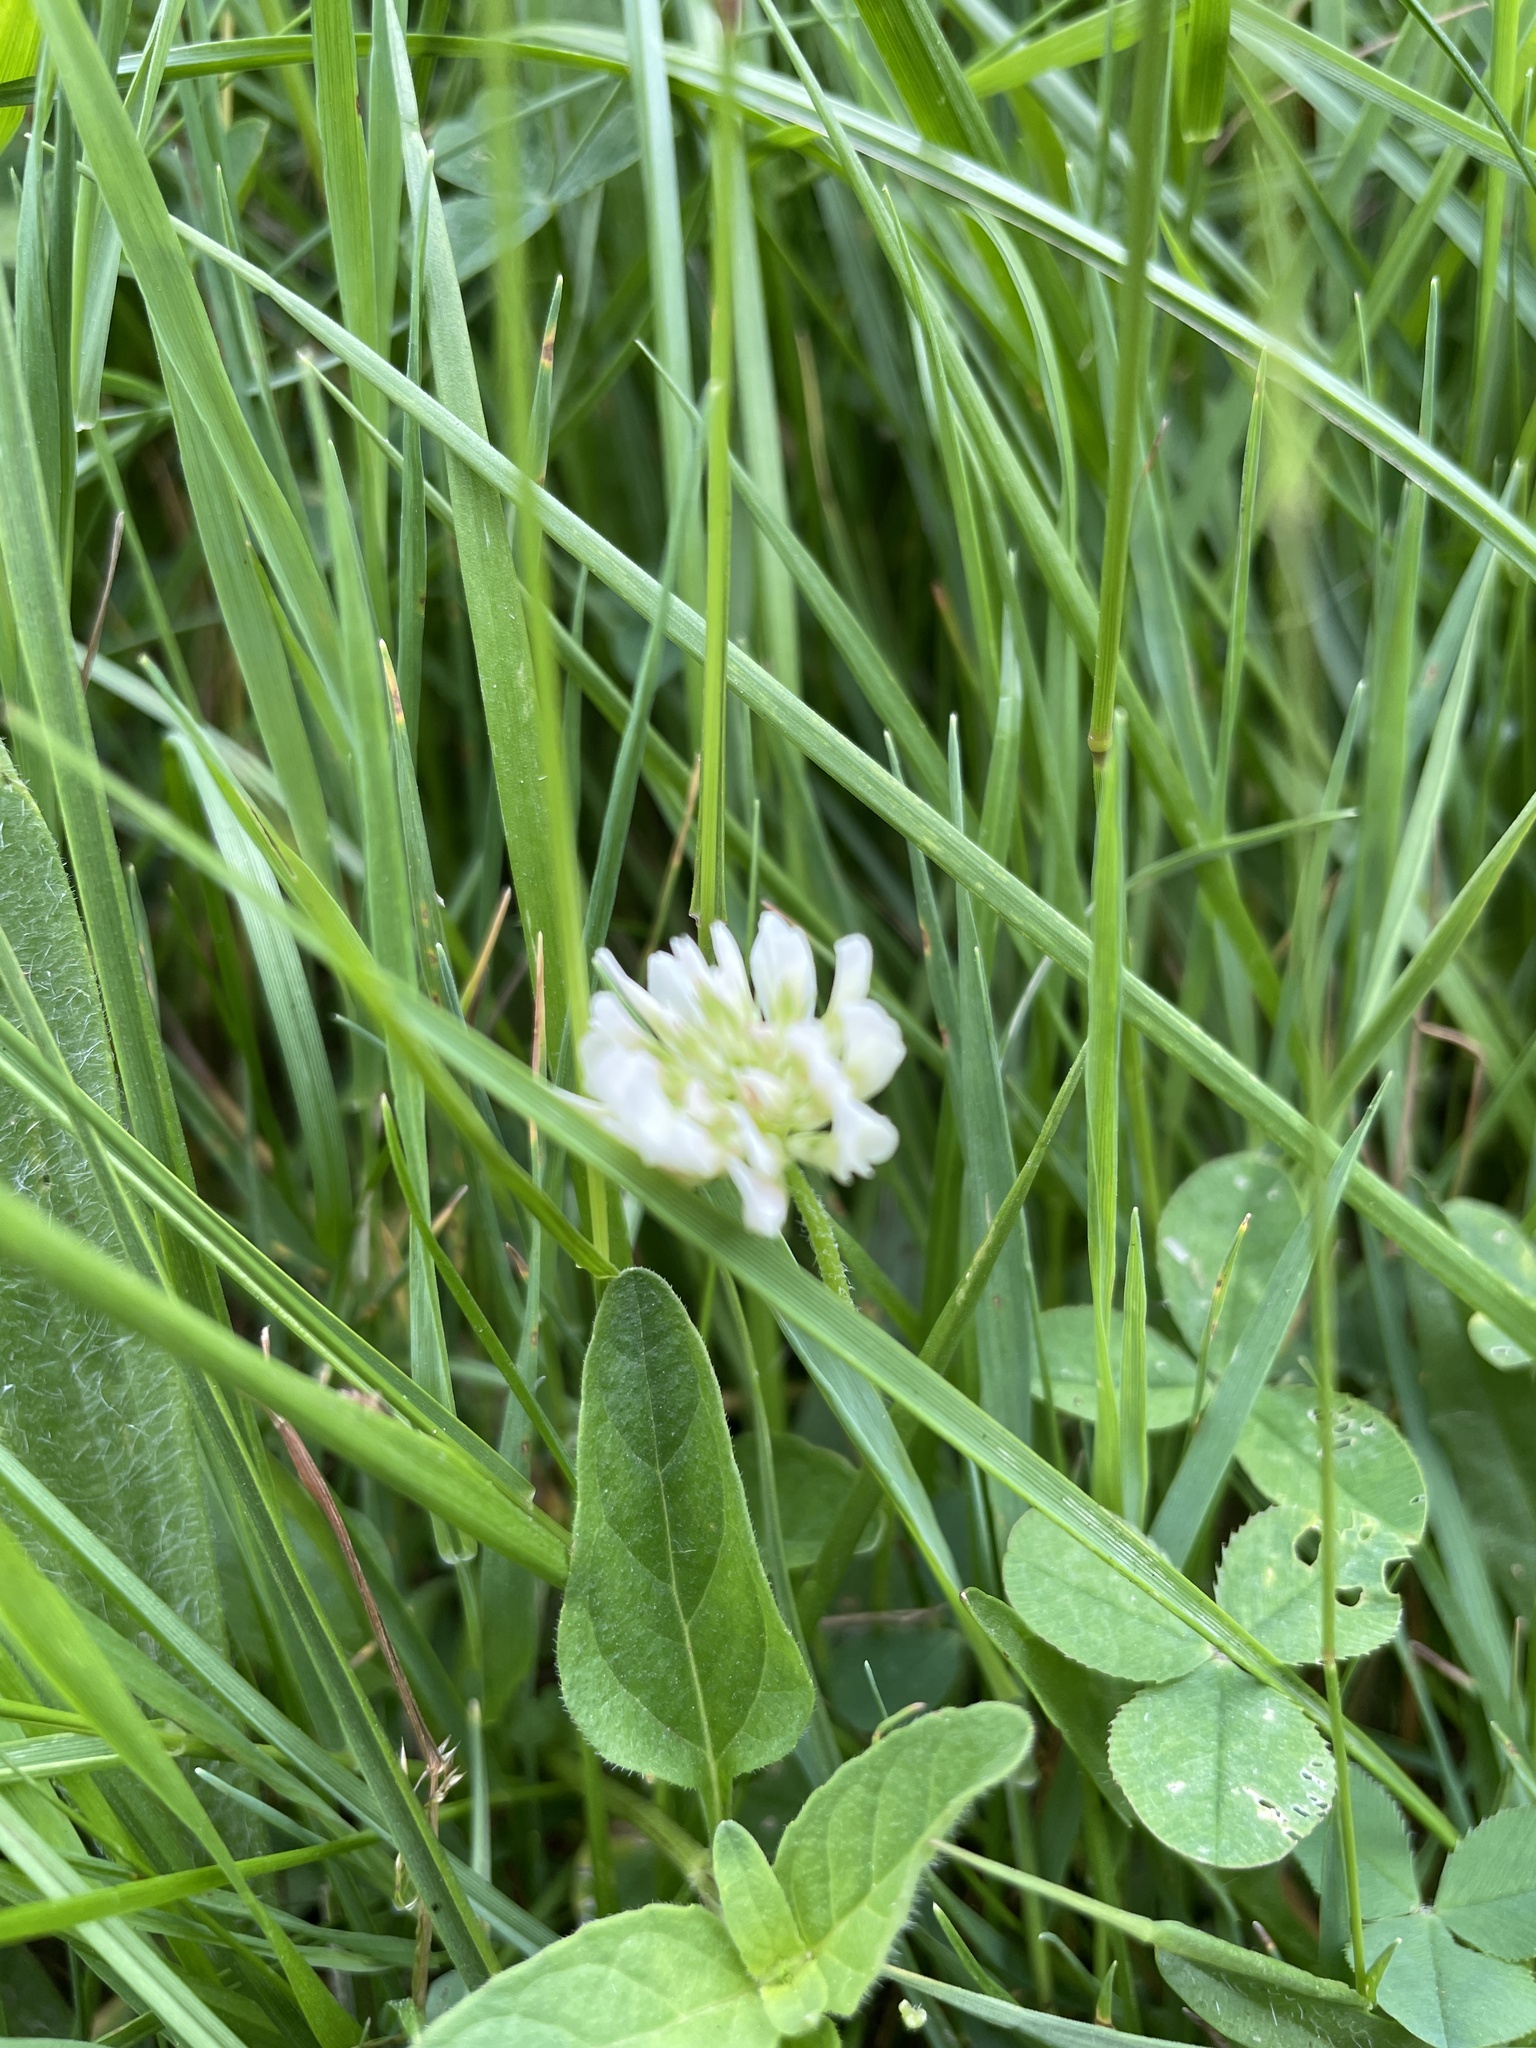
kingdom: Plantae
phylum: Tracheophyta
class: Magnoliopsida
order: Fabales
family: Fabaceae
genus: Trifolium
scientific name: Trifolium repens
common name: White clover
